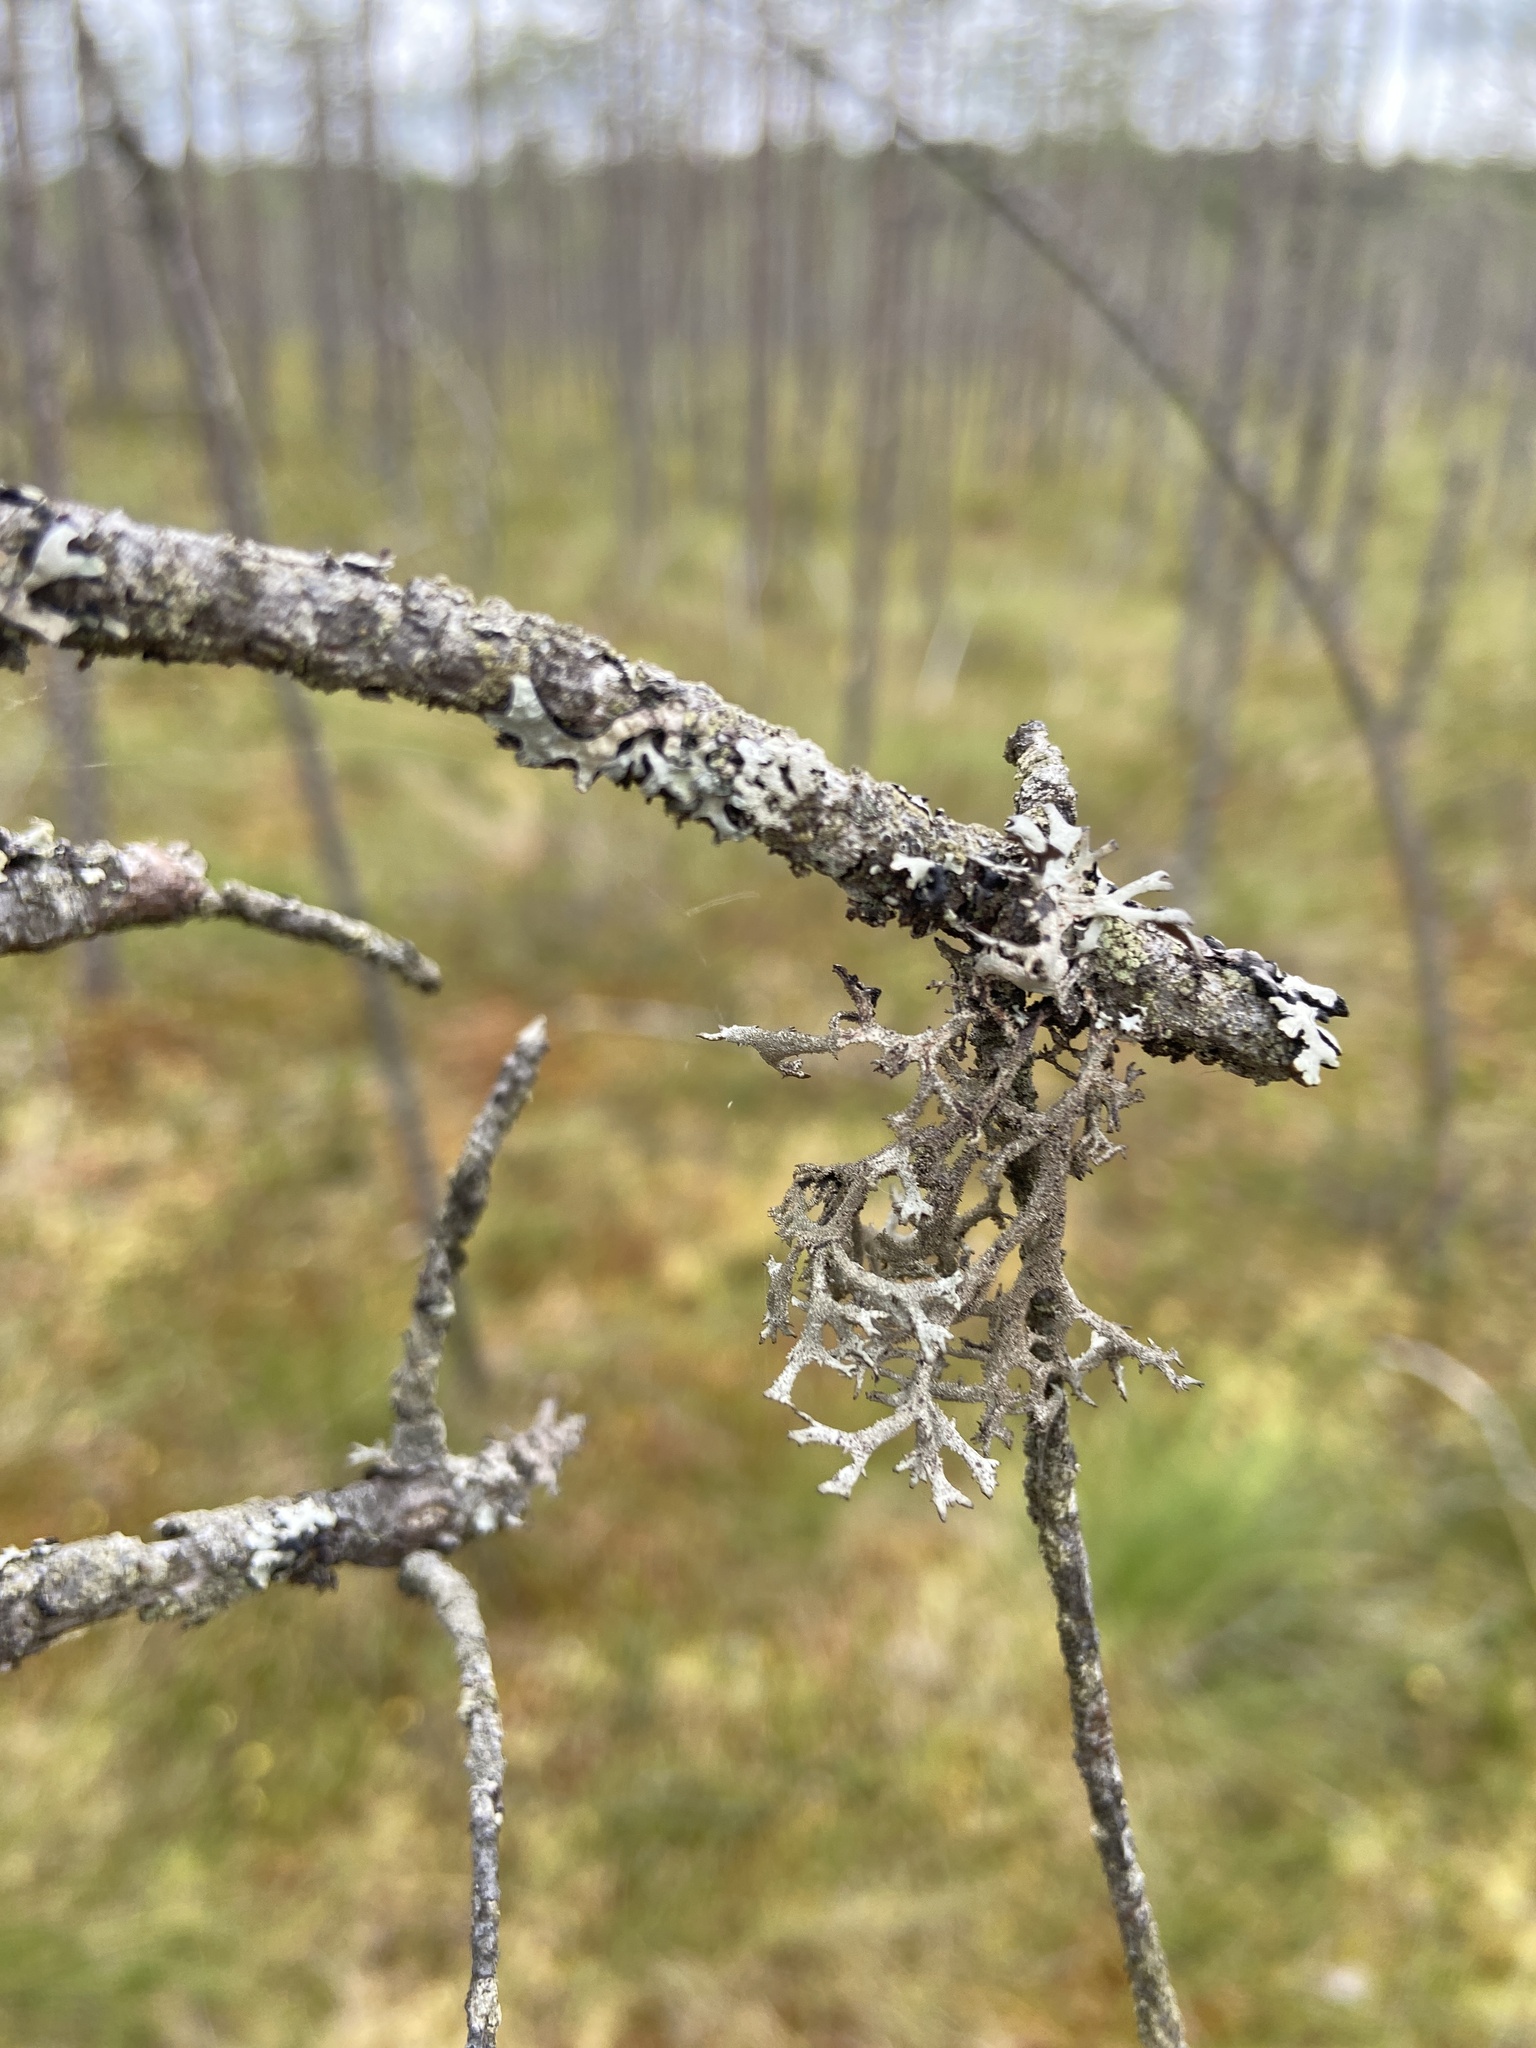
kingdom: Fungi
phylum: Ascomycota
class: Lecanoromycetes
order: Lecanorales
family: Parmeliaceae
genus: Pseudevernia
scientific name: Pseudevernia furfuracea
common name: Tree moss
